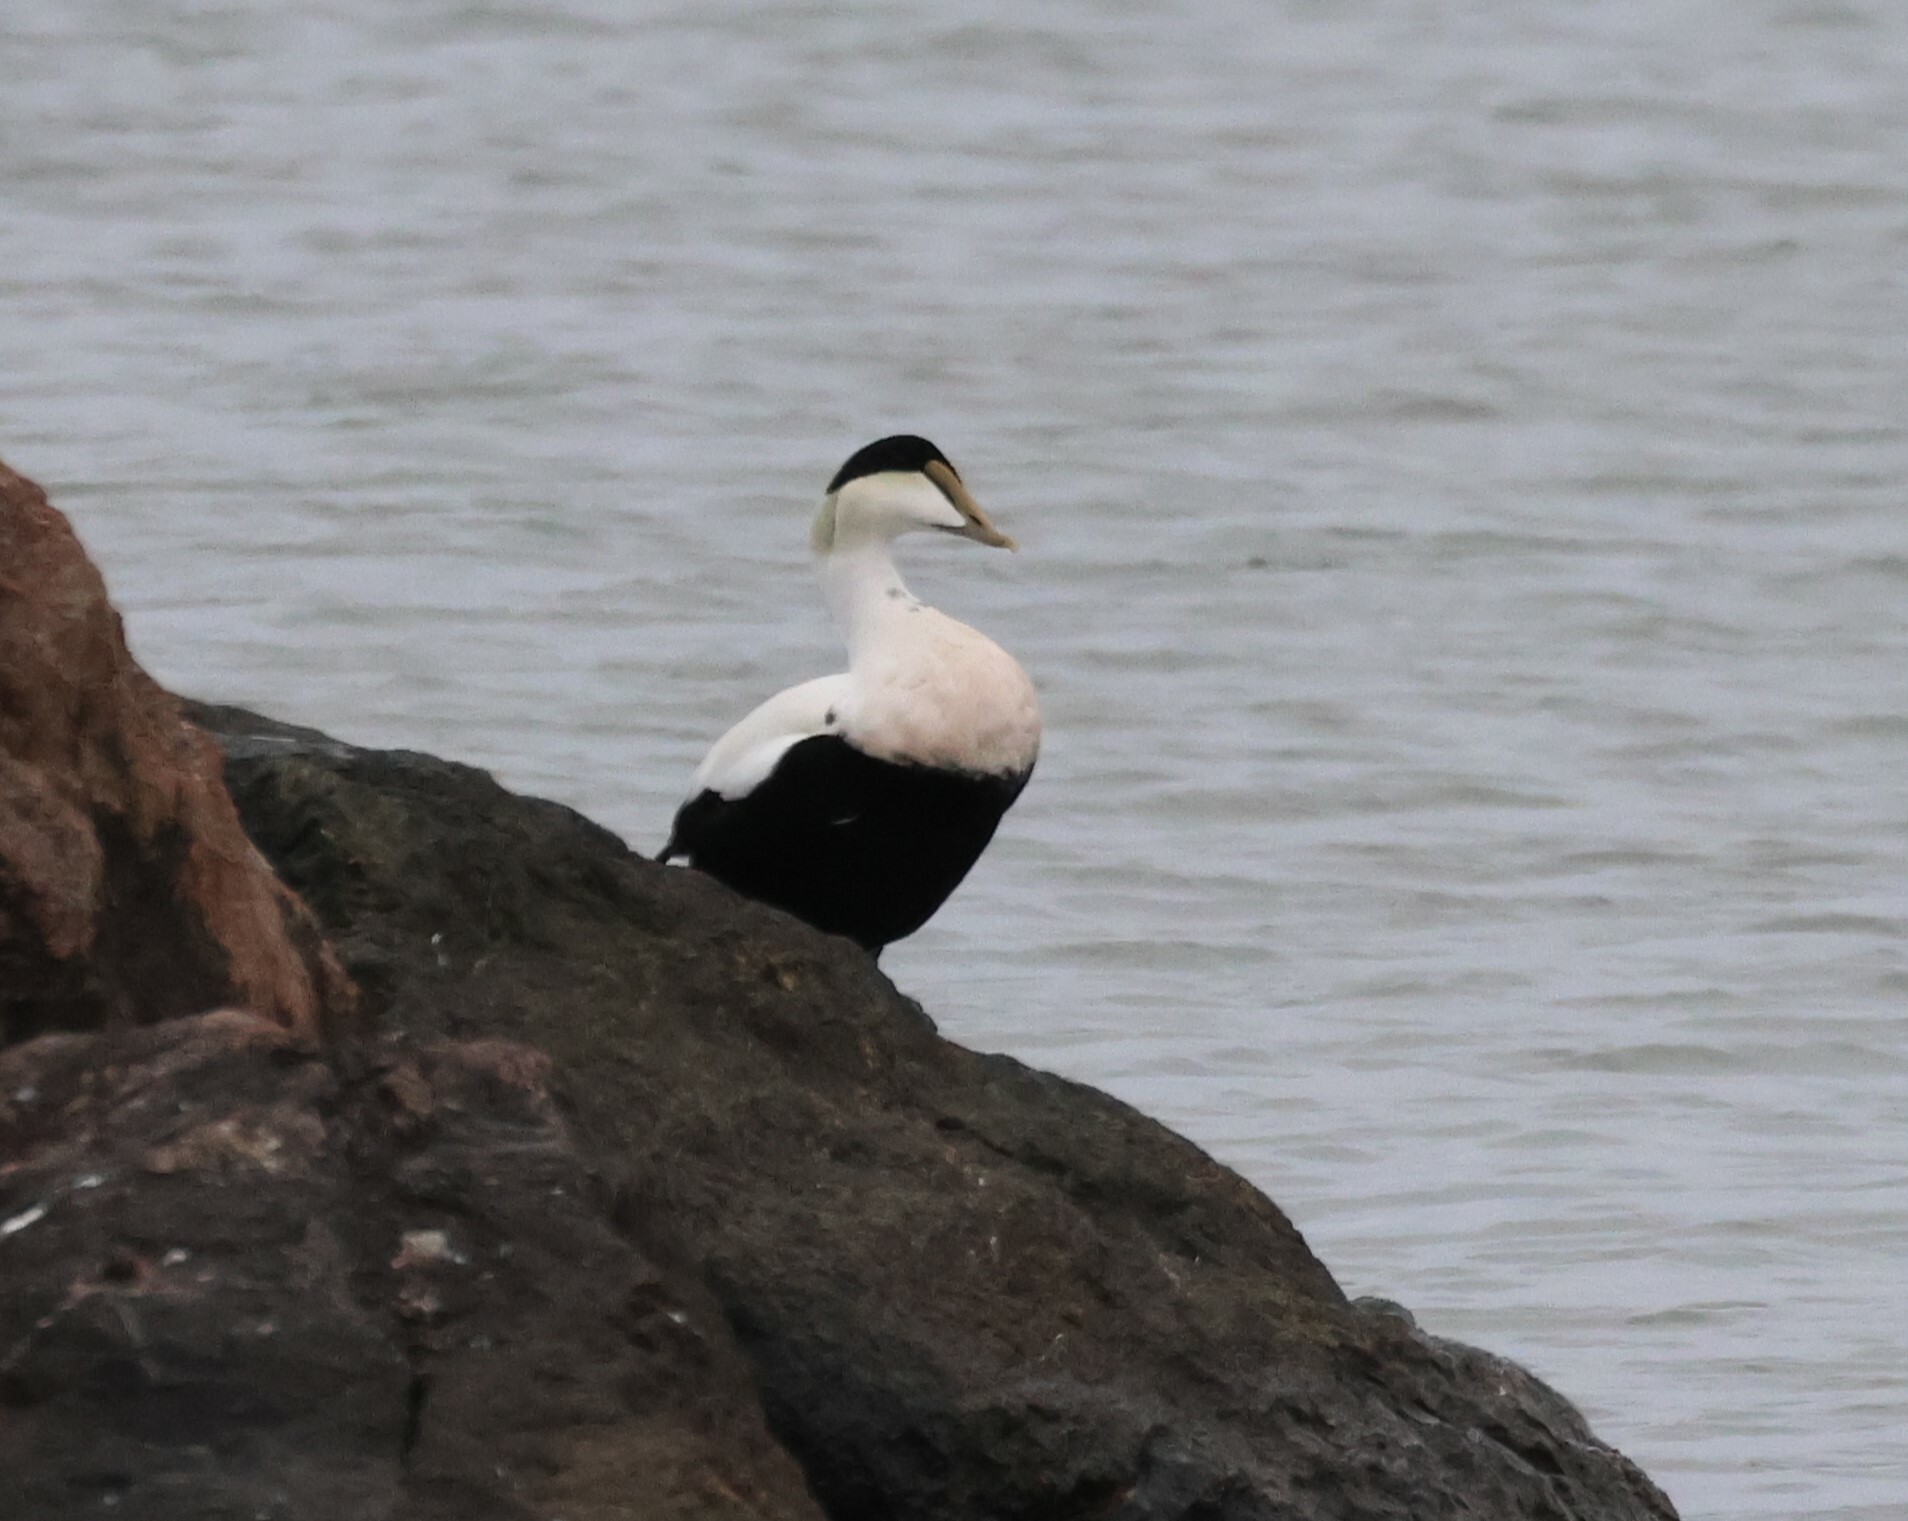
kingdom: Animalia
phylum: Chordata
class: Aves
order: Anseriformes
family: Anatidae
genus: Somateria
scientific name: Somateria mollissima
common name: Common eider
